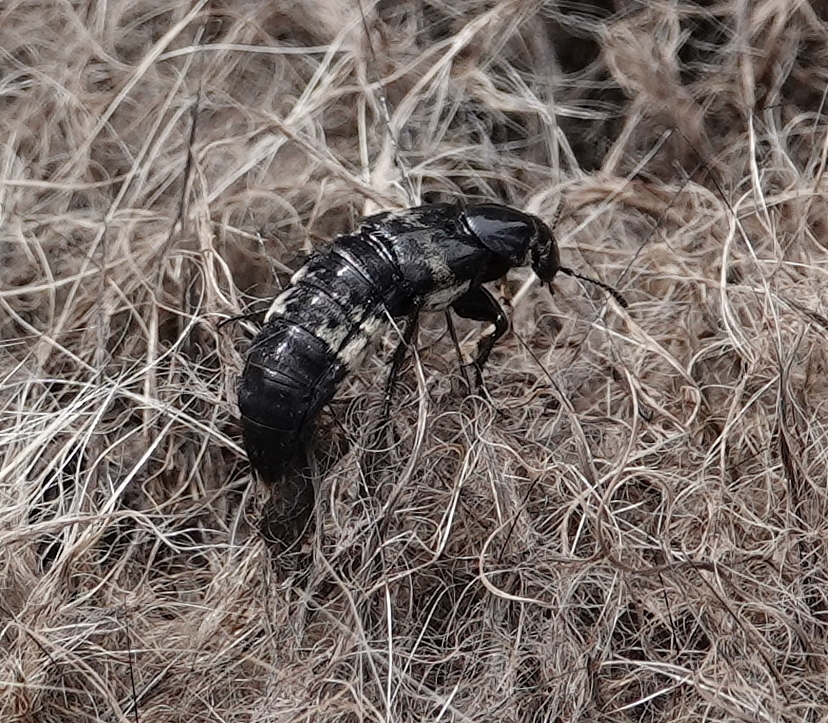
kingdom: Animalia
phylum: Arthropoda
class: Insecta
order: Coleoptera
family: Staphylinidae
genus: Creophilus
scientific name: Creophilus maxillosus
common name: Hairy rove beetle
